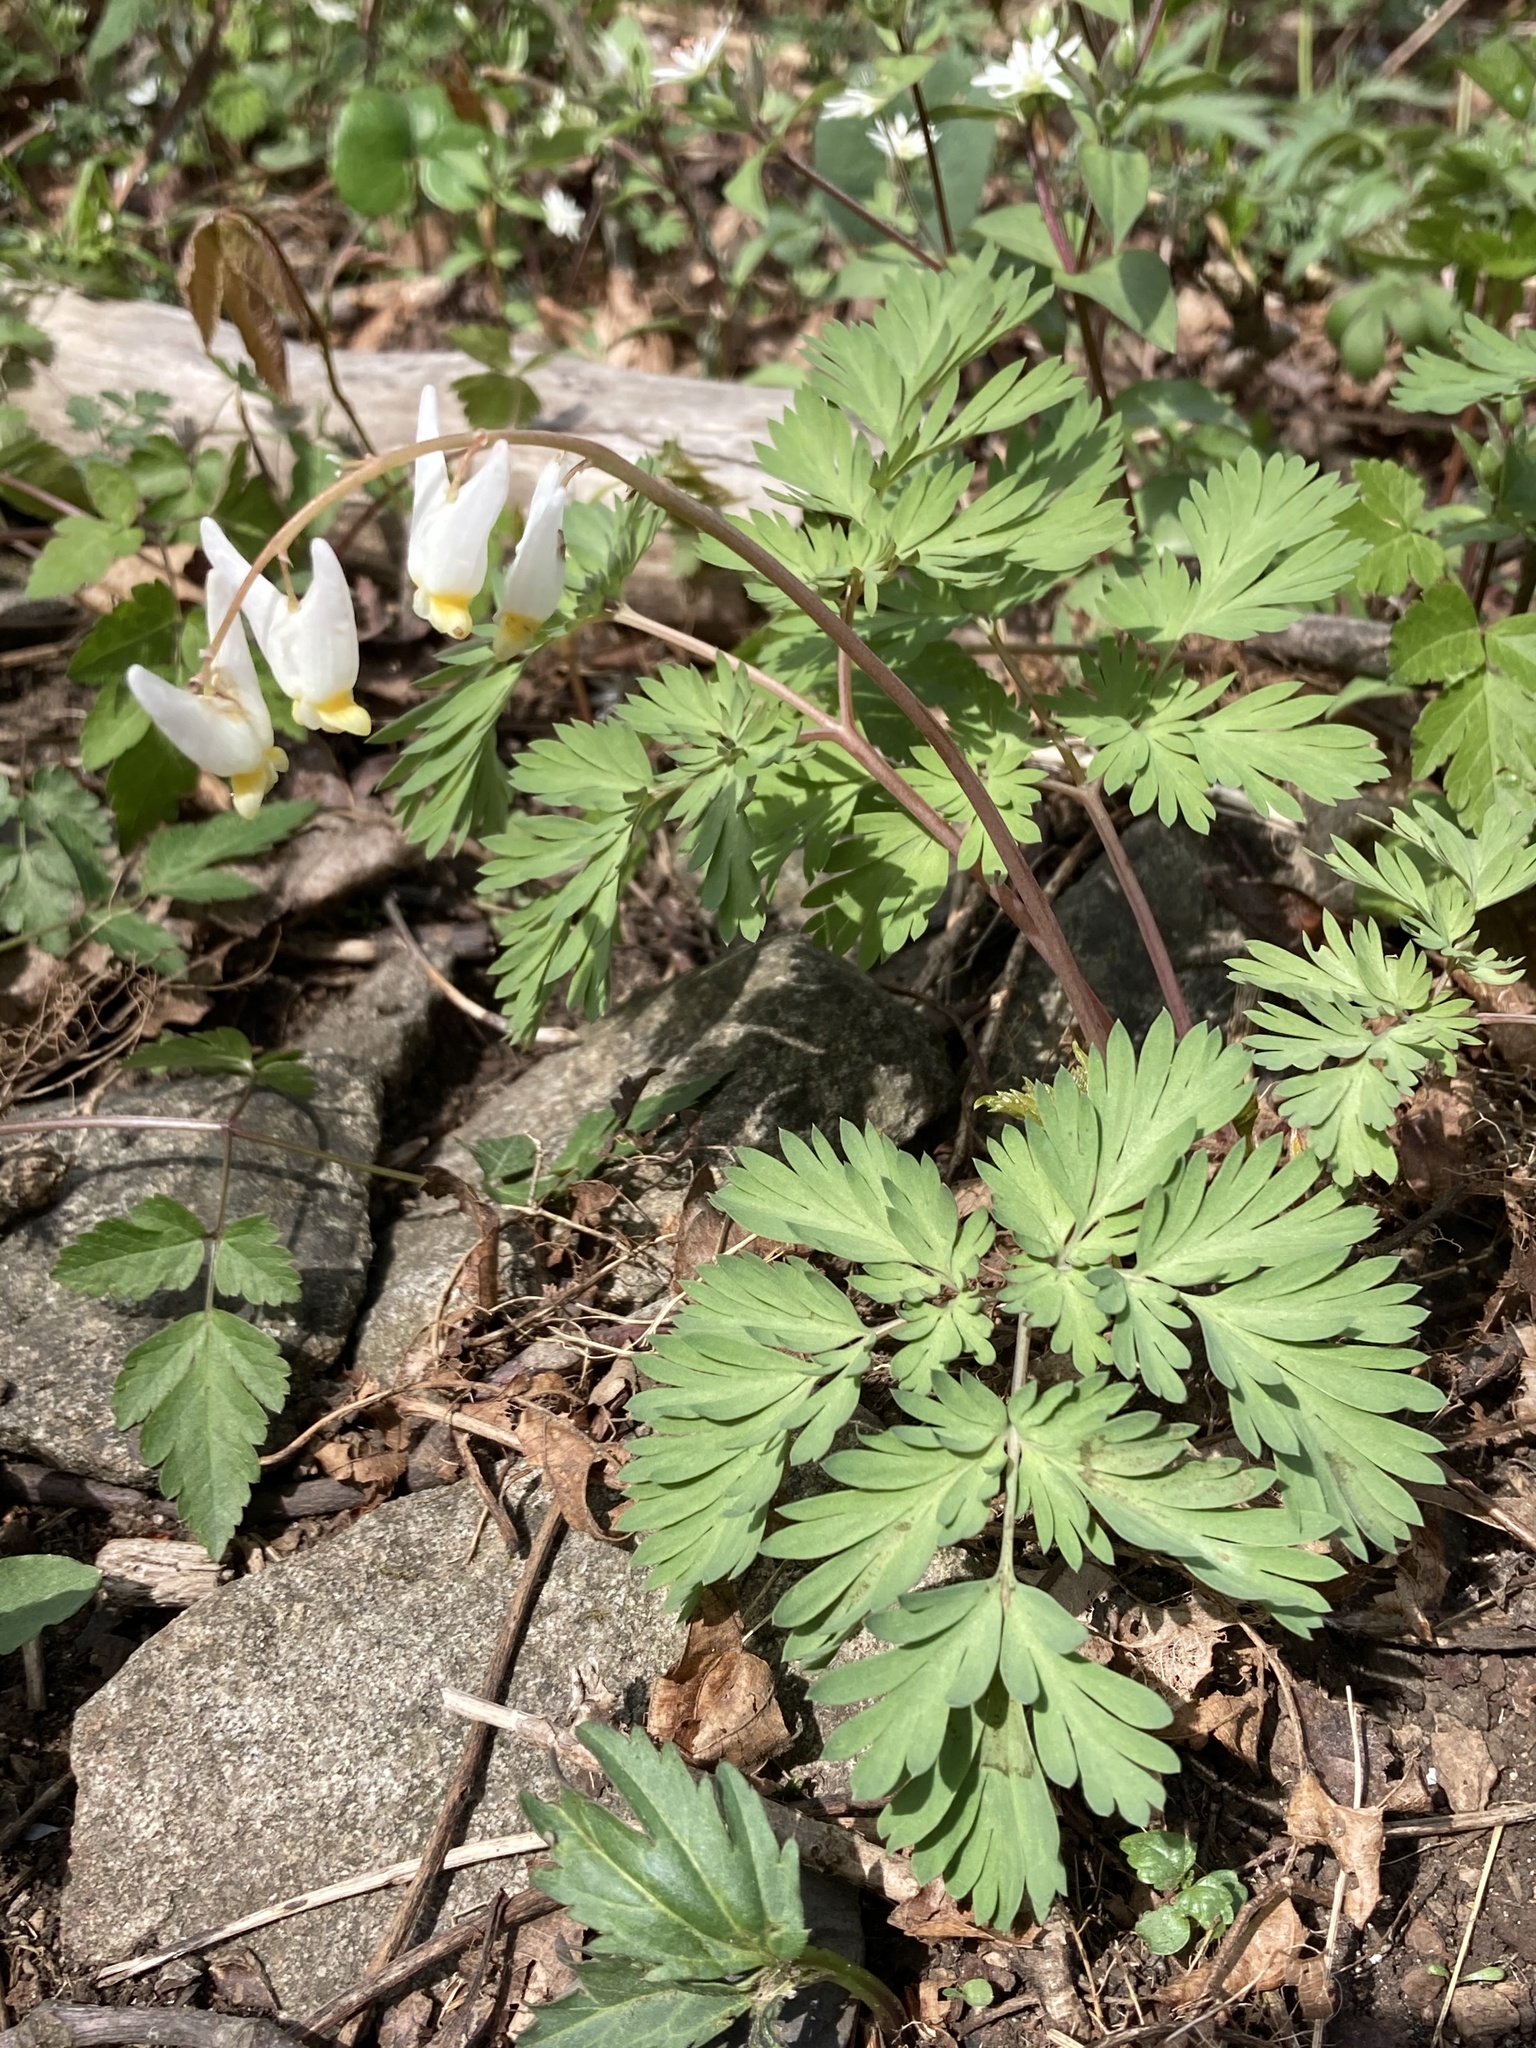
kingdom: Plantae
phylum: Tracheophyta
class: Magnoliopsida
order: Ranunculales
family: Papaveraceae
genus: Dicentra
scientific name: Dicentra cucullaria
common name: Dutchman's breeches
